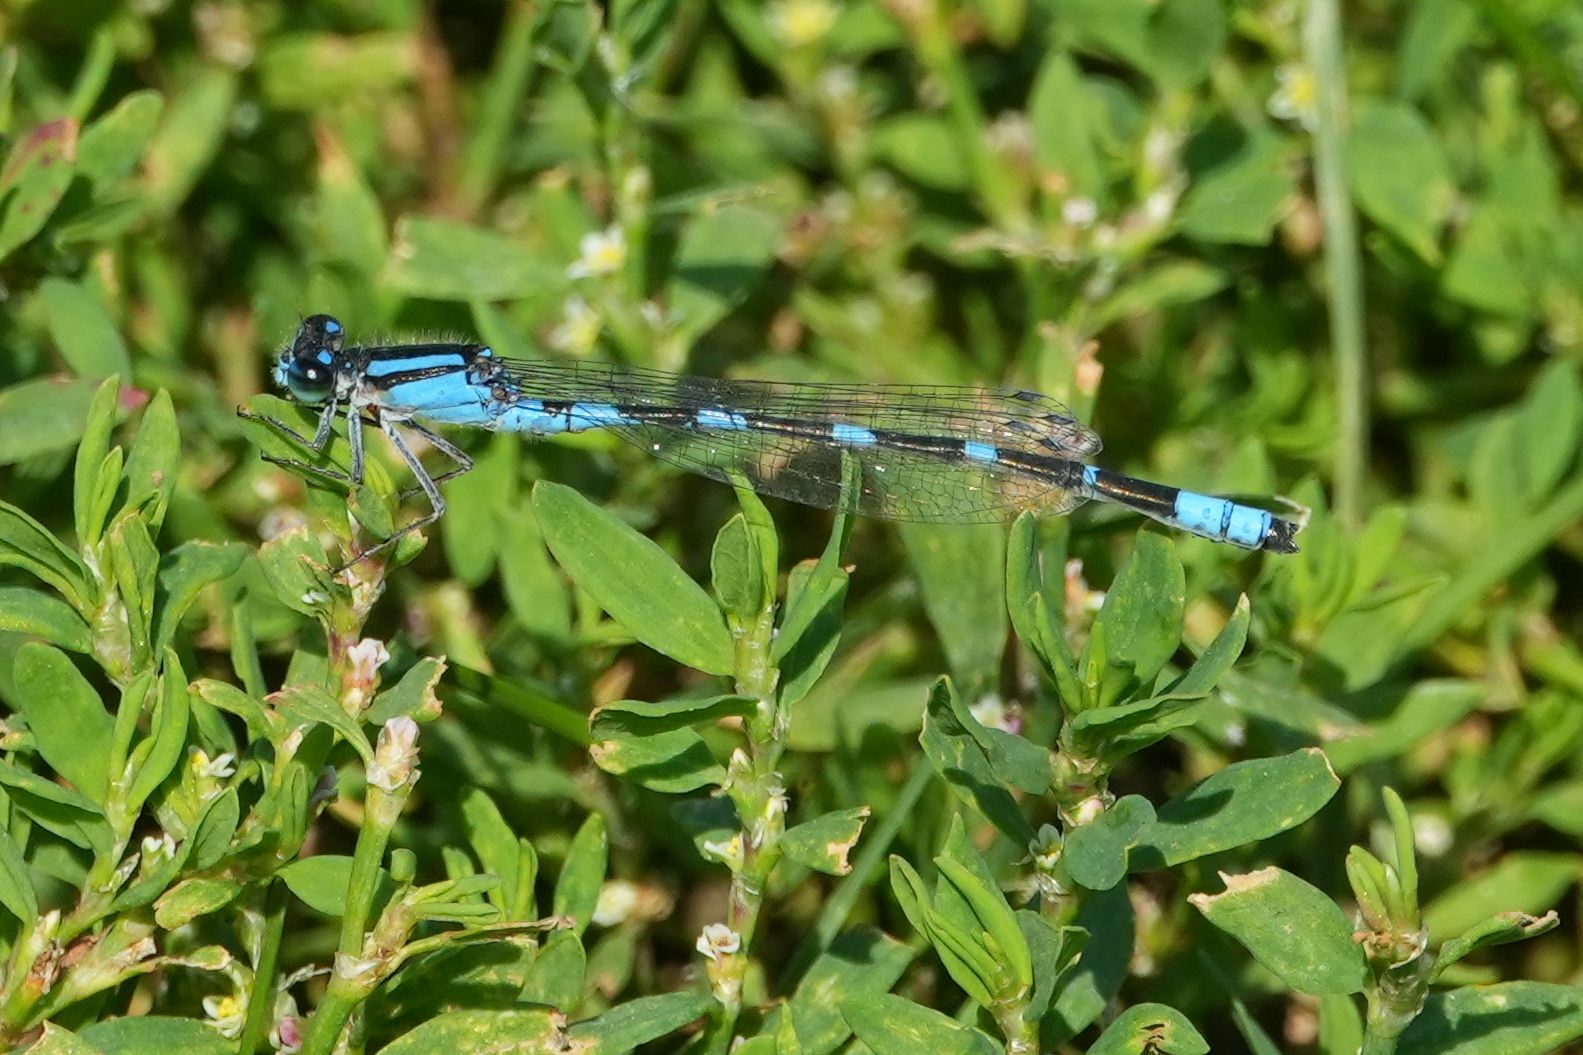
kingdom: Animalia
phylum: Arthropoda
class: Insecta
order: Odonata
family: Coenagrionidae
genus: Enallagma
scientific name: Enallagma carunculatum
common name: Tule bluet
